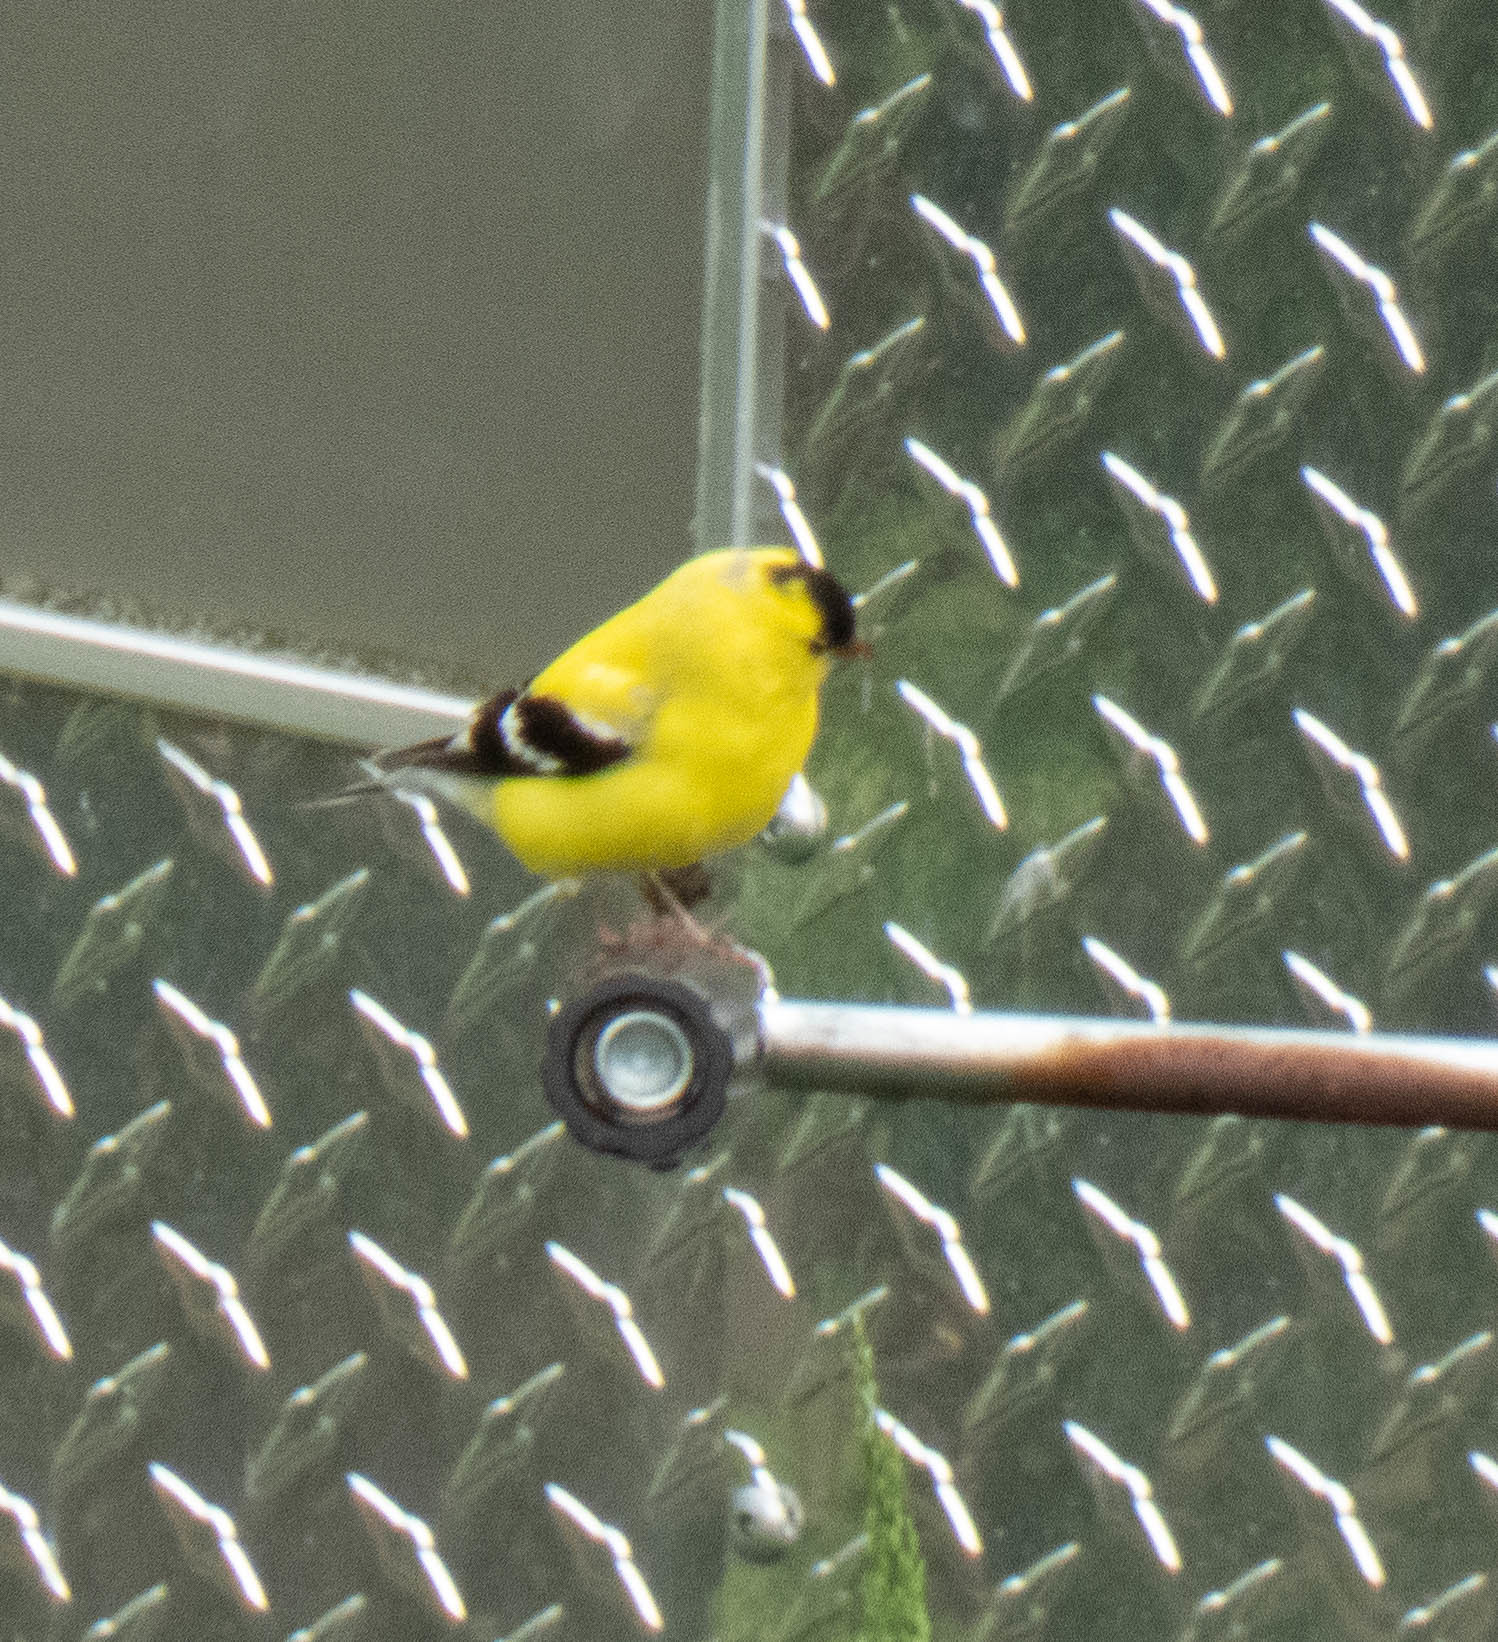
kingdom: Animalia
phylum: Chordata
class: Aves
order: Passeriformes
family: Fringillidae
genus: Spinus
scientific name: Spinus tristis
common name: American goldfinch
